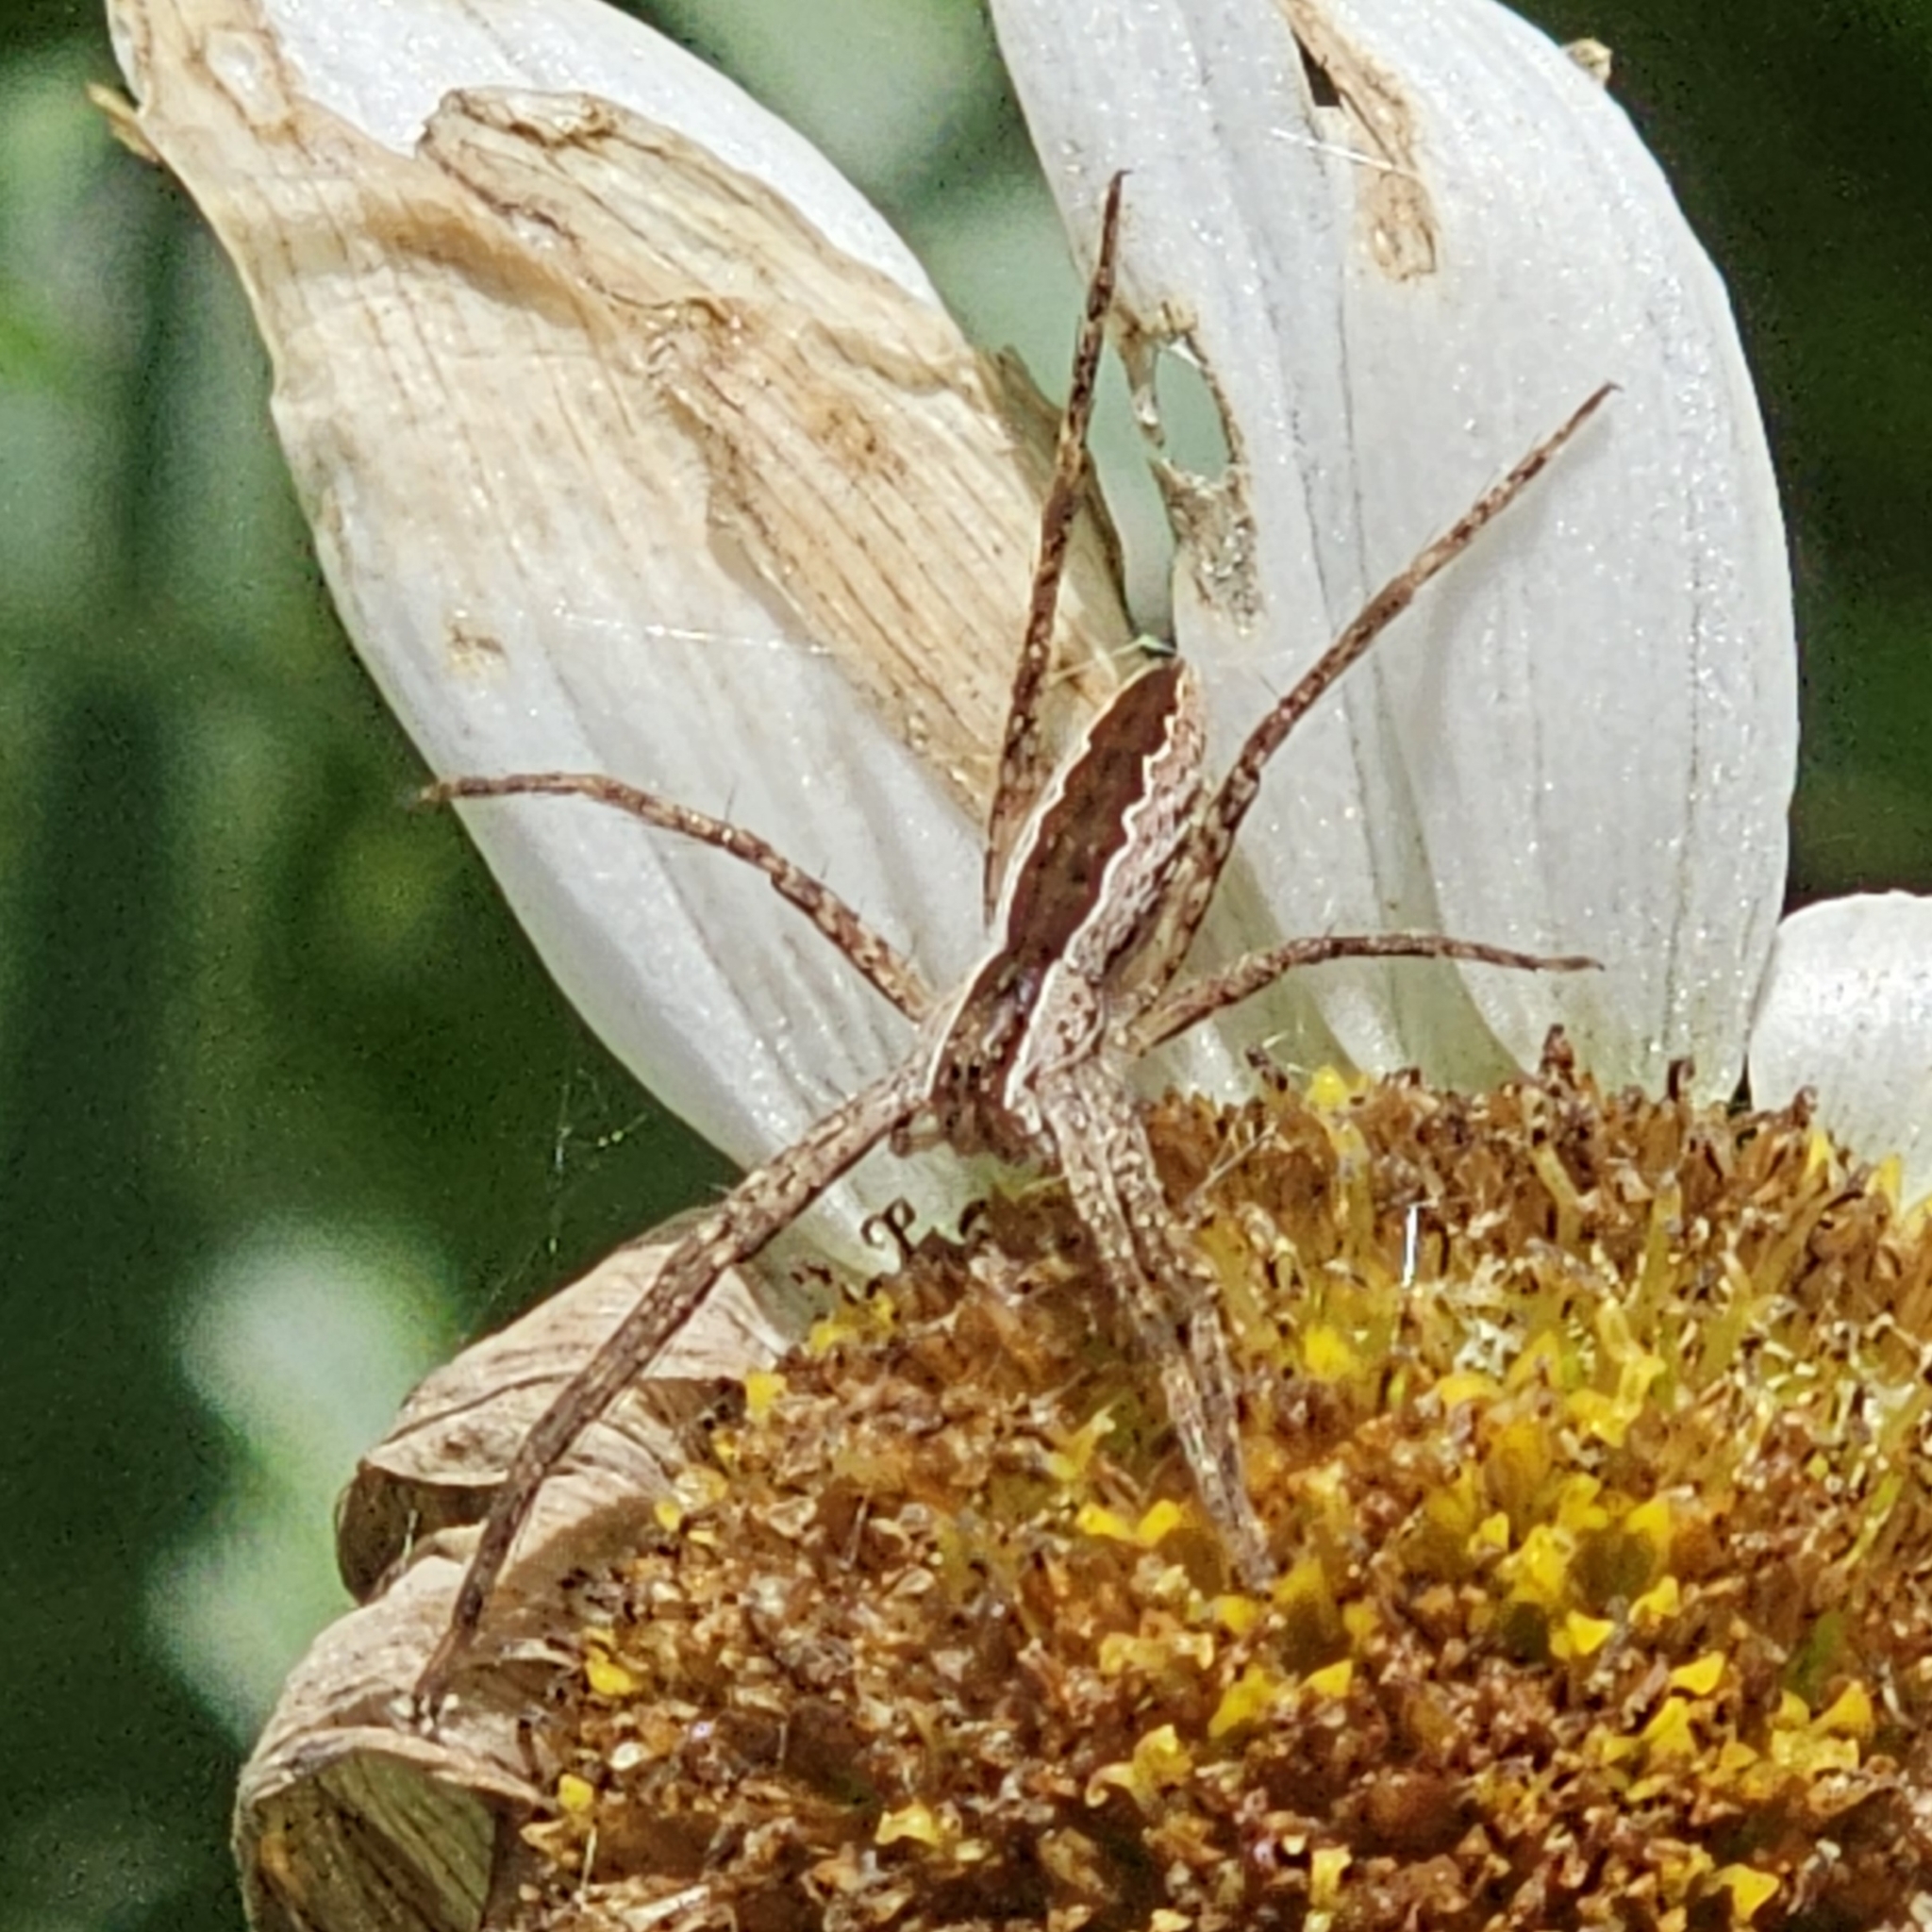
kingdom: Animalia
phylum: Arthropoda
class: Arachnida
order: Araneae
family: Pisauridae
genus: Pisaurina
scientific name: Pisaurina mira
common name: American nursery web spider
